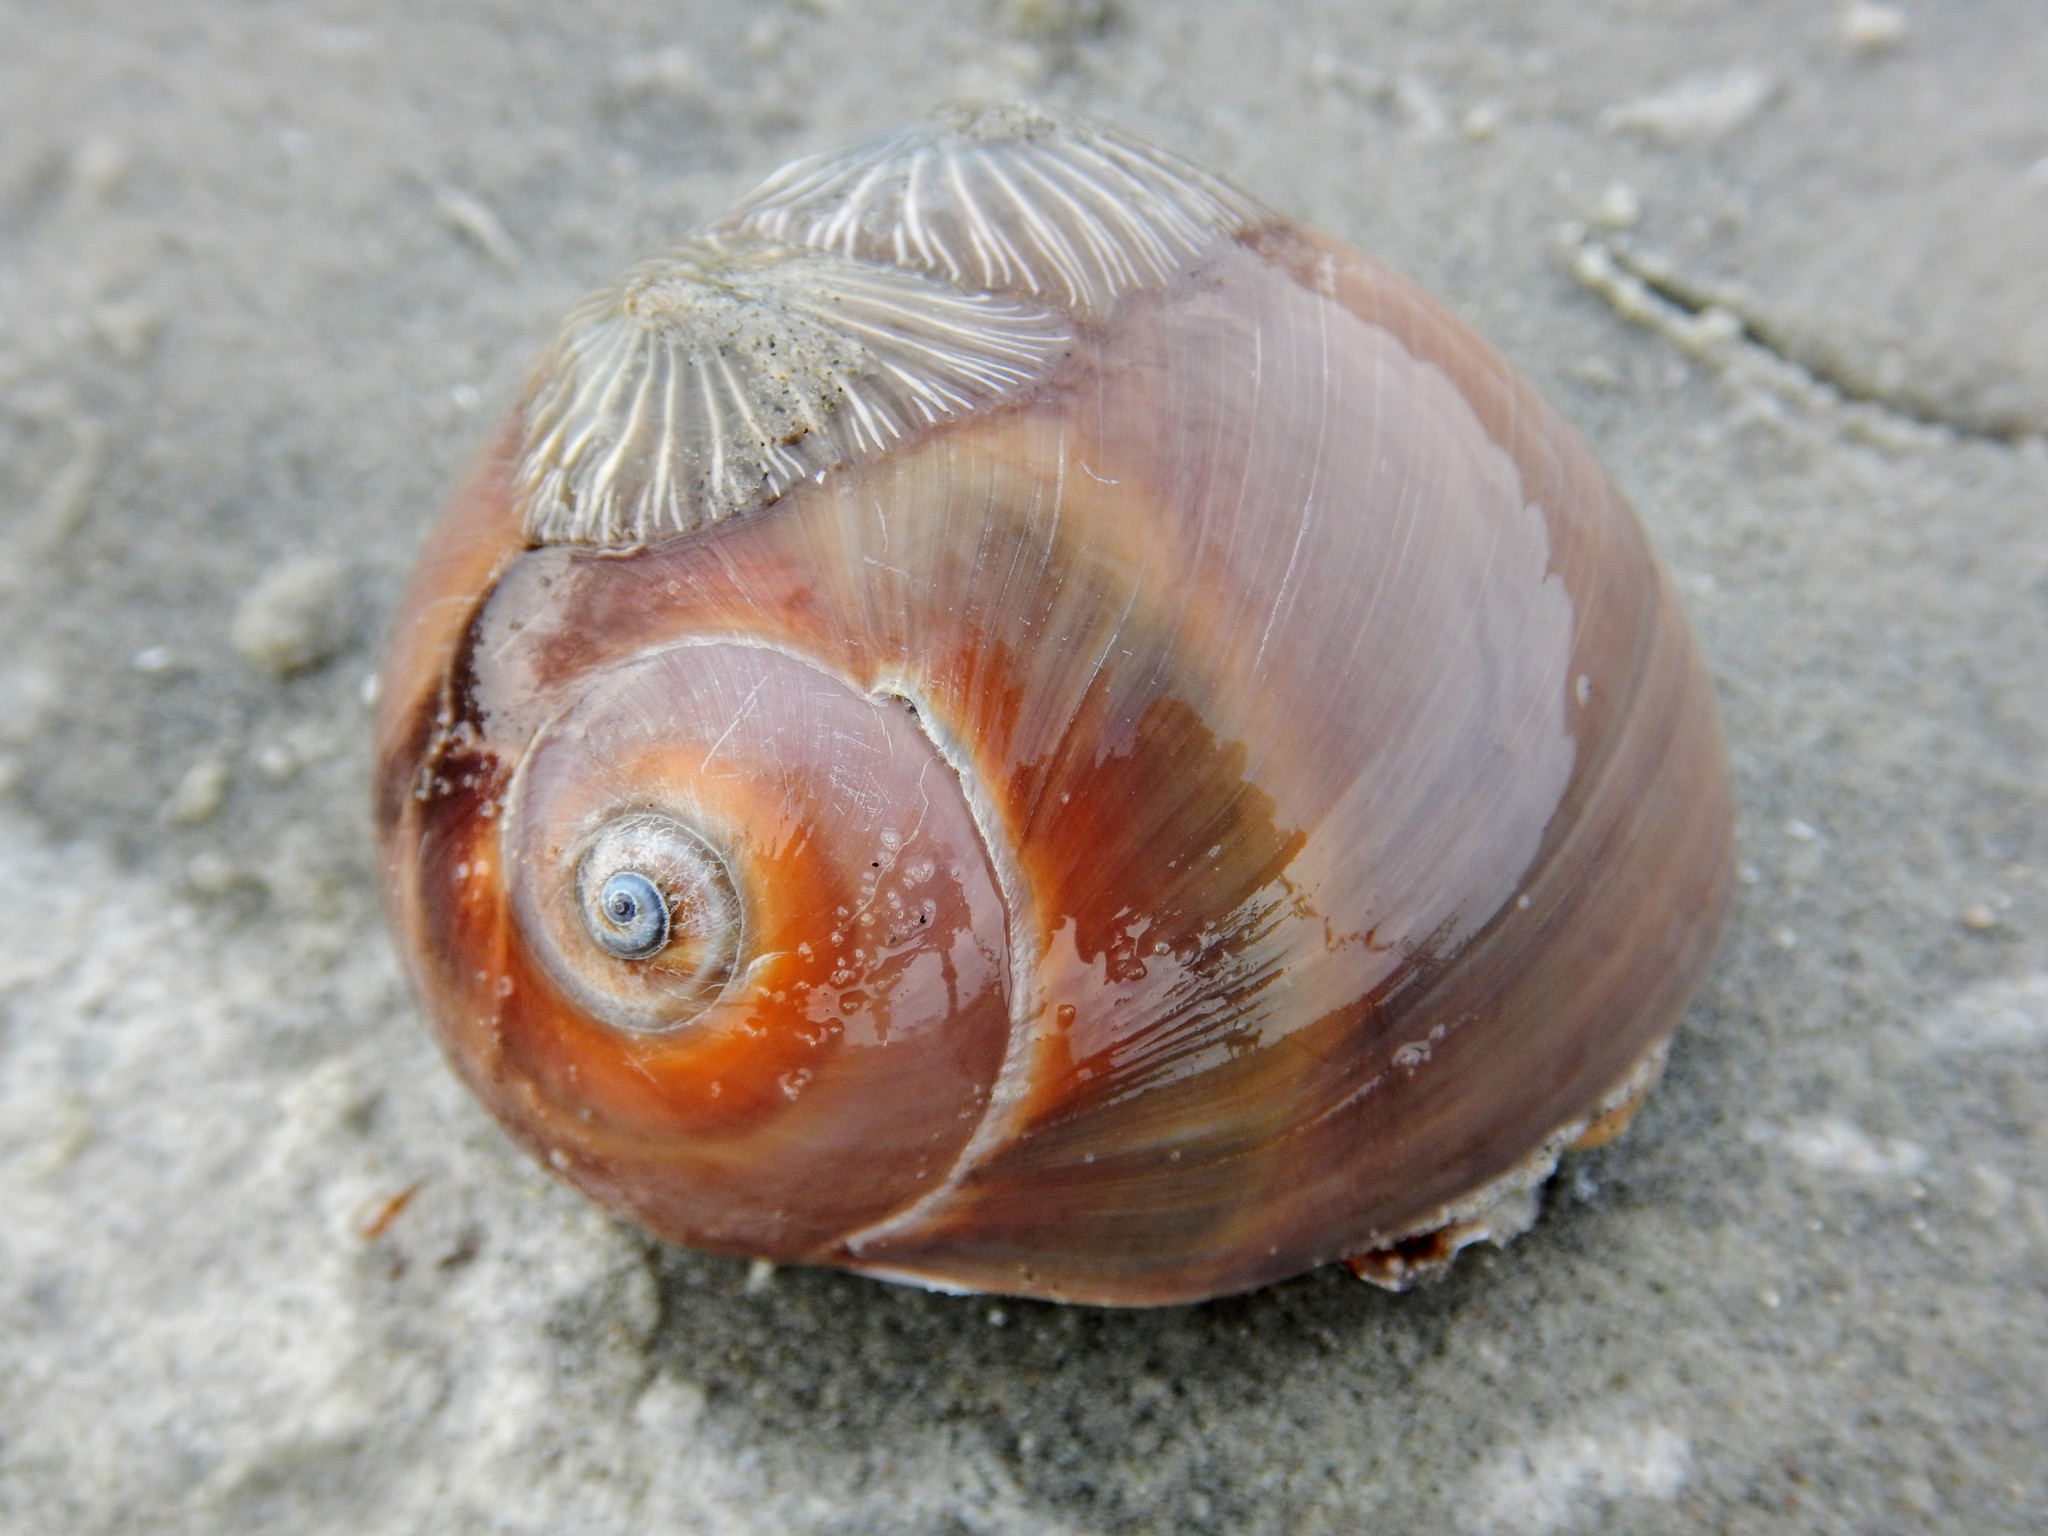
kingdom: Animalia
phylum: Mollusca
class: Gastropoda
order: Littorinimorpha
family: Naticidae
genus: Glossaulax
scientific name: Glossaulax reclusiana
